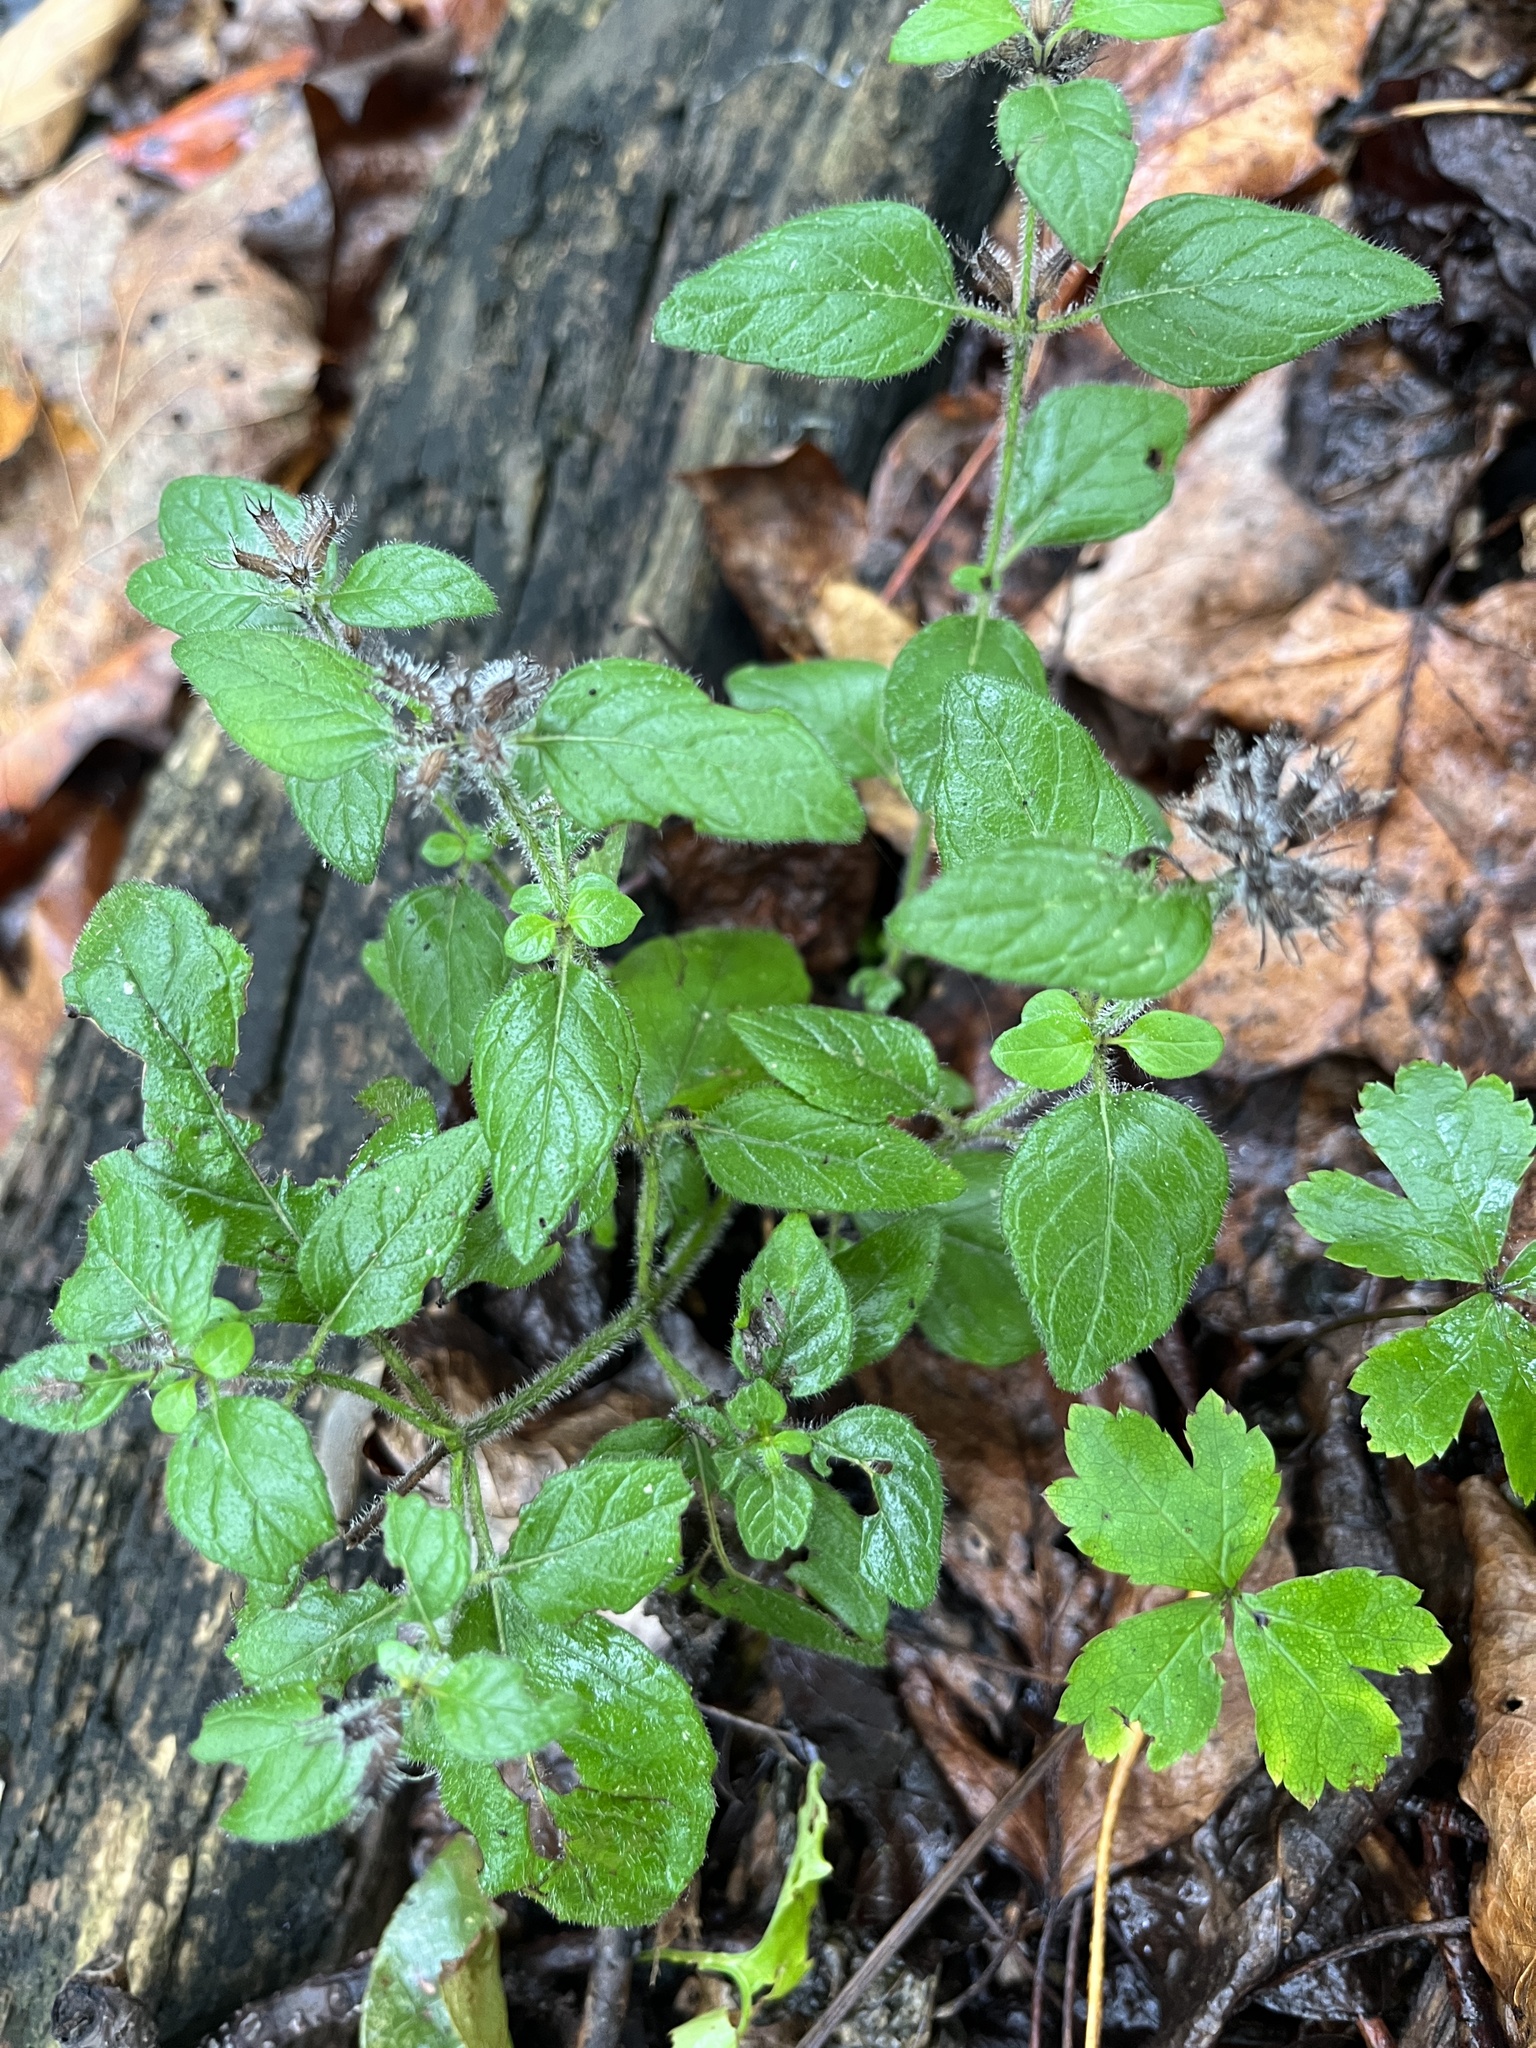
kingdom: Plantae
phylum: Tracheophyta
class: Magnoliopsida
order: Lamiales
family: Lamiaceae
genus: Clinopodium
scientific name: Clinopodium vulgare
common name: Wild basil
